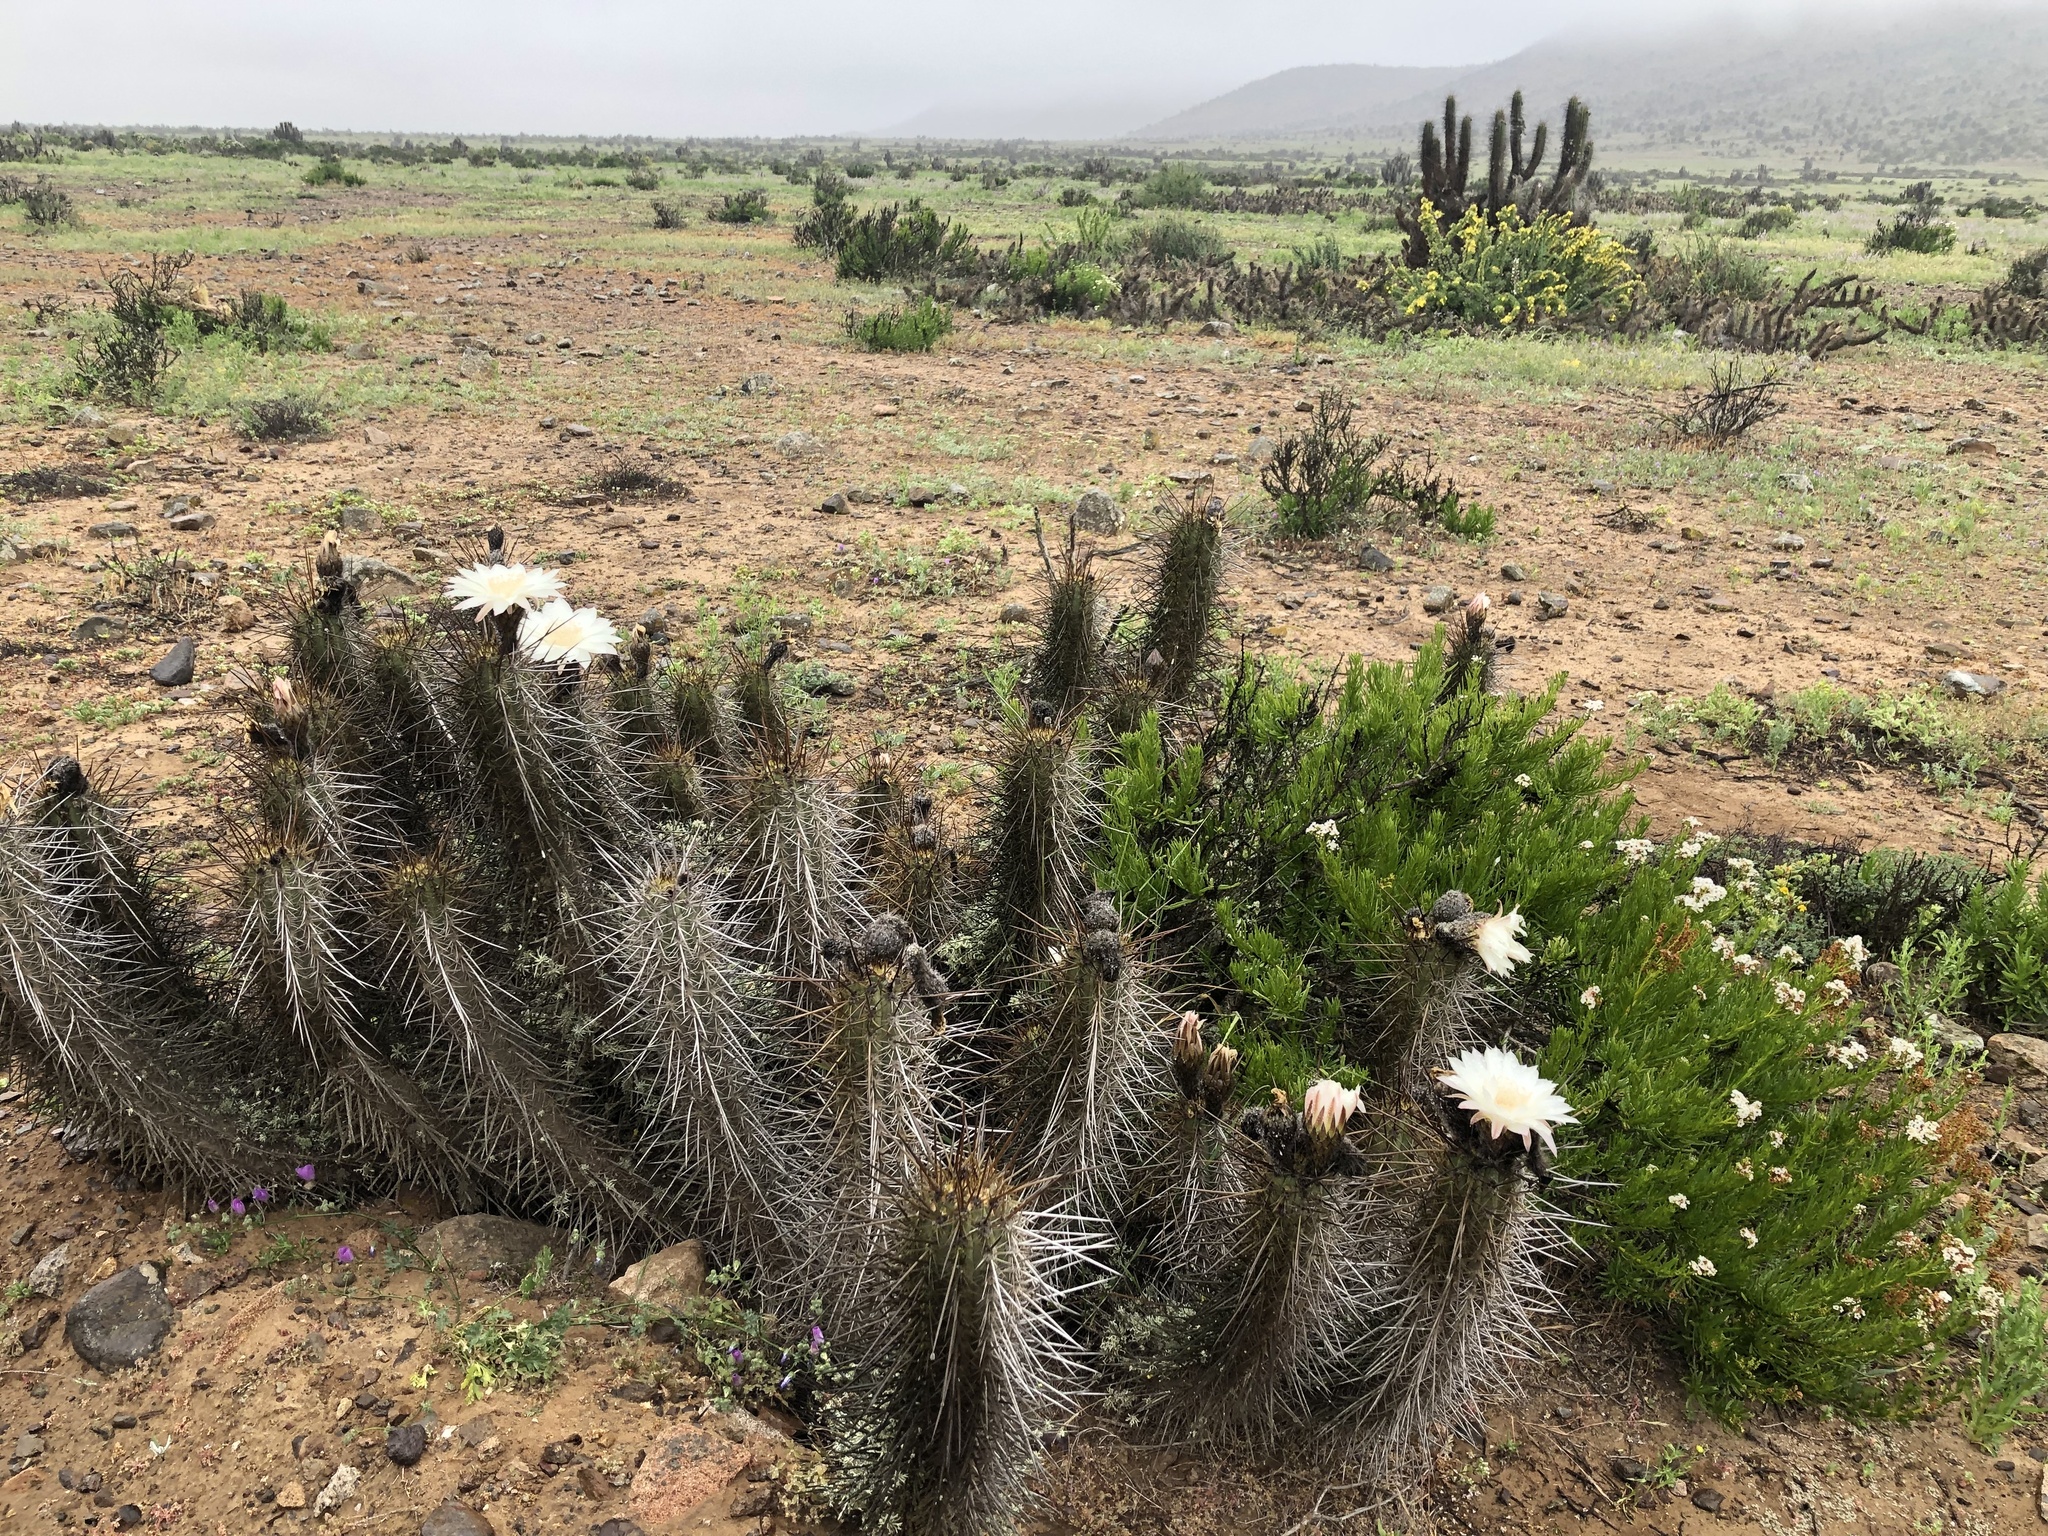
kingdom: Plantae
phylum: Tracheophyta
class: Magnoliopsida
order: Caryophyllales
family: Cactaceae
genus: Leucostele
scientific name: Leucostele deserticola
